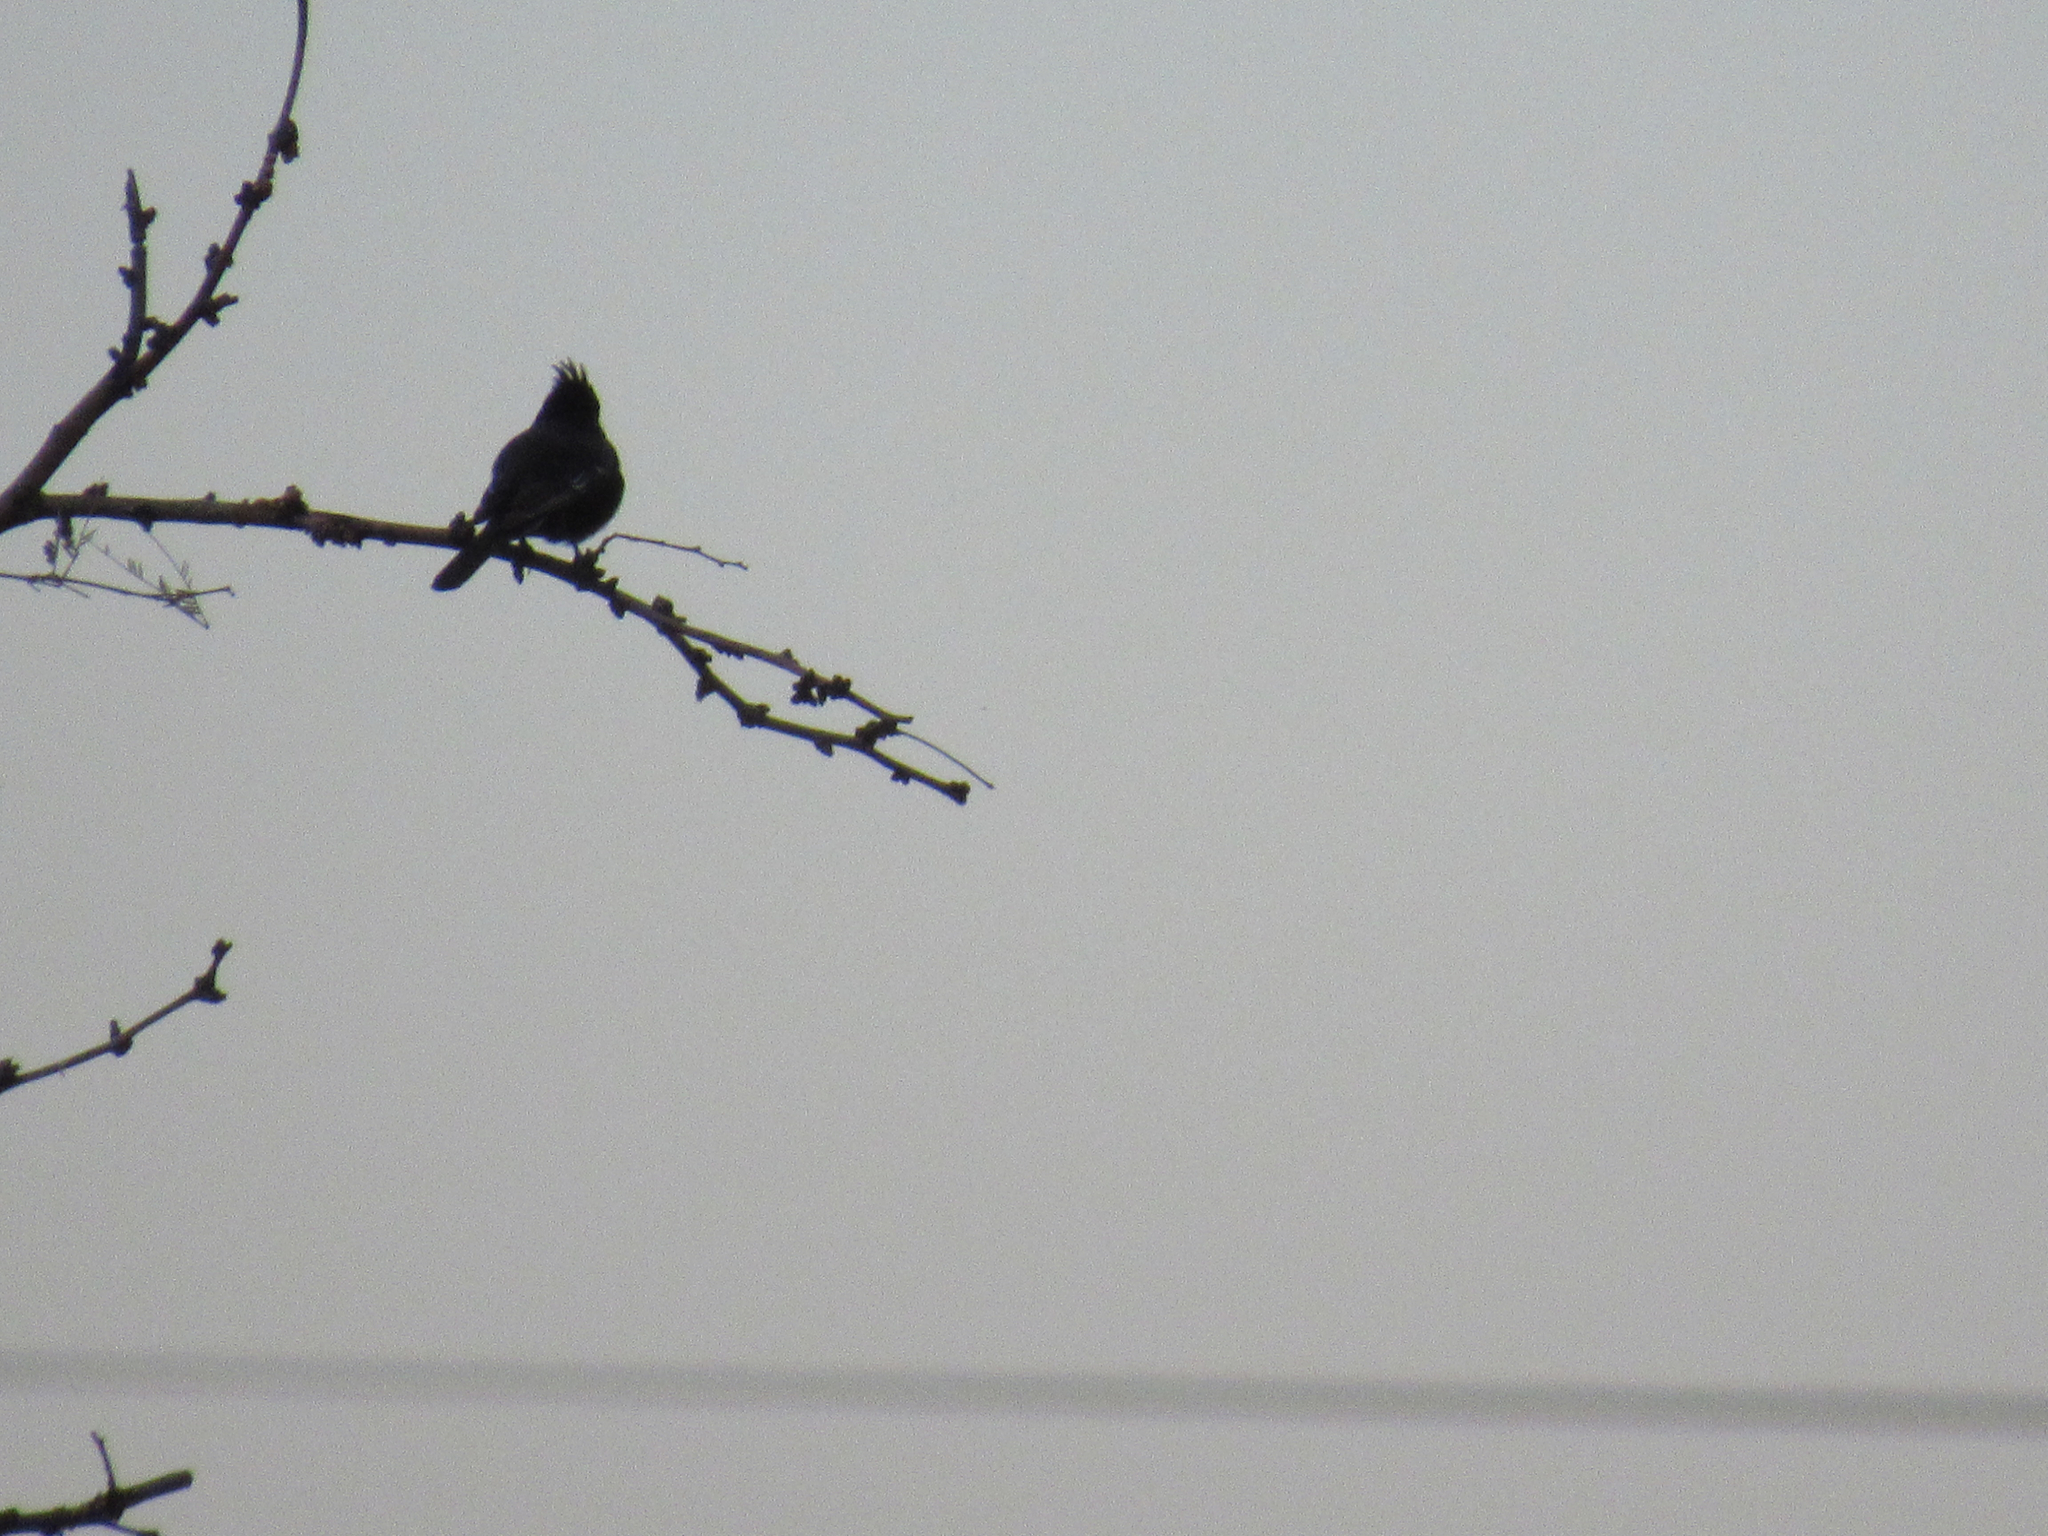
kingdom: Animalia
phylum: Chordata
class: Aves
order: Passeriformes
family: Ptilogonatidae
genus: Phainopepla
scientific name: Phainopepla nitens
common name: Phainopepla
